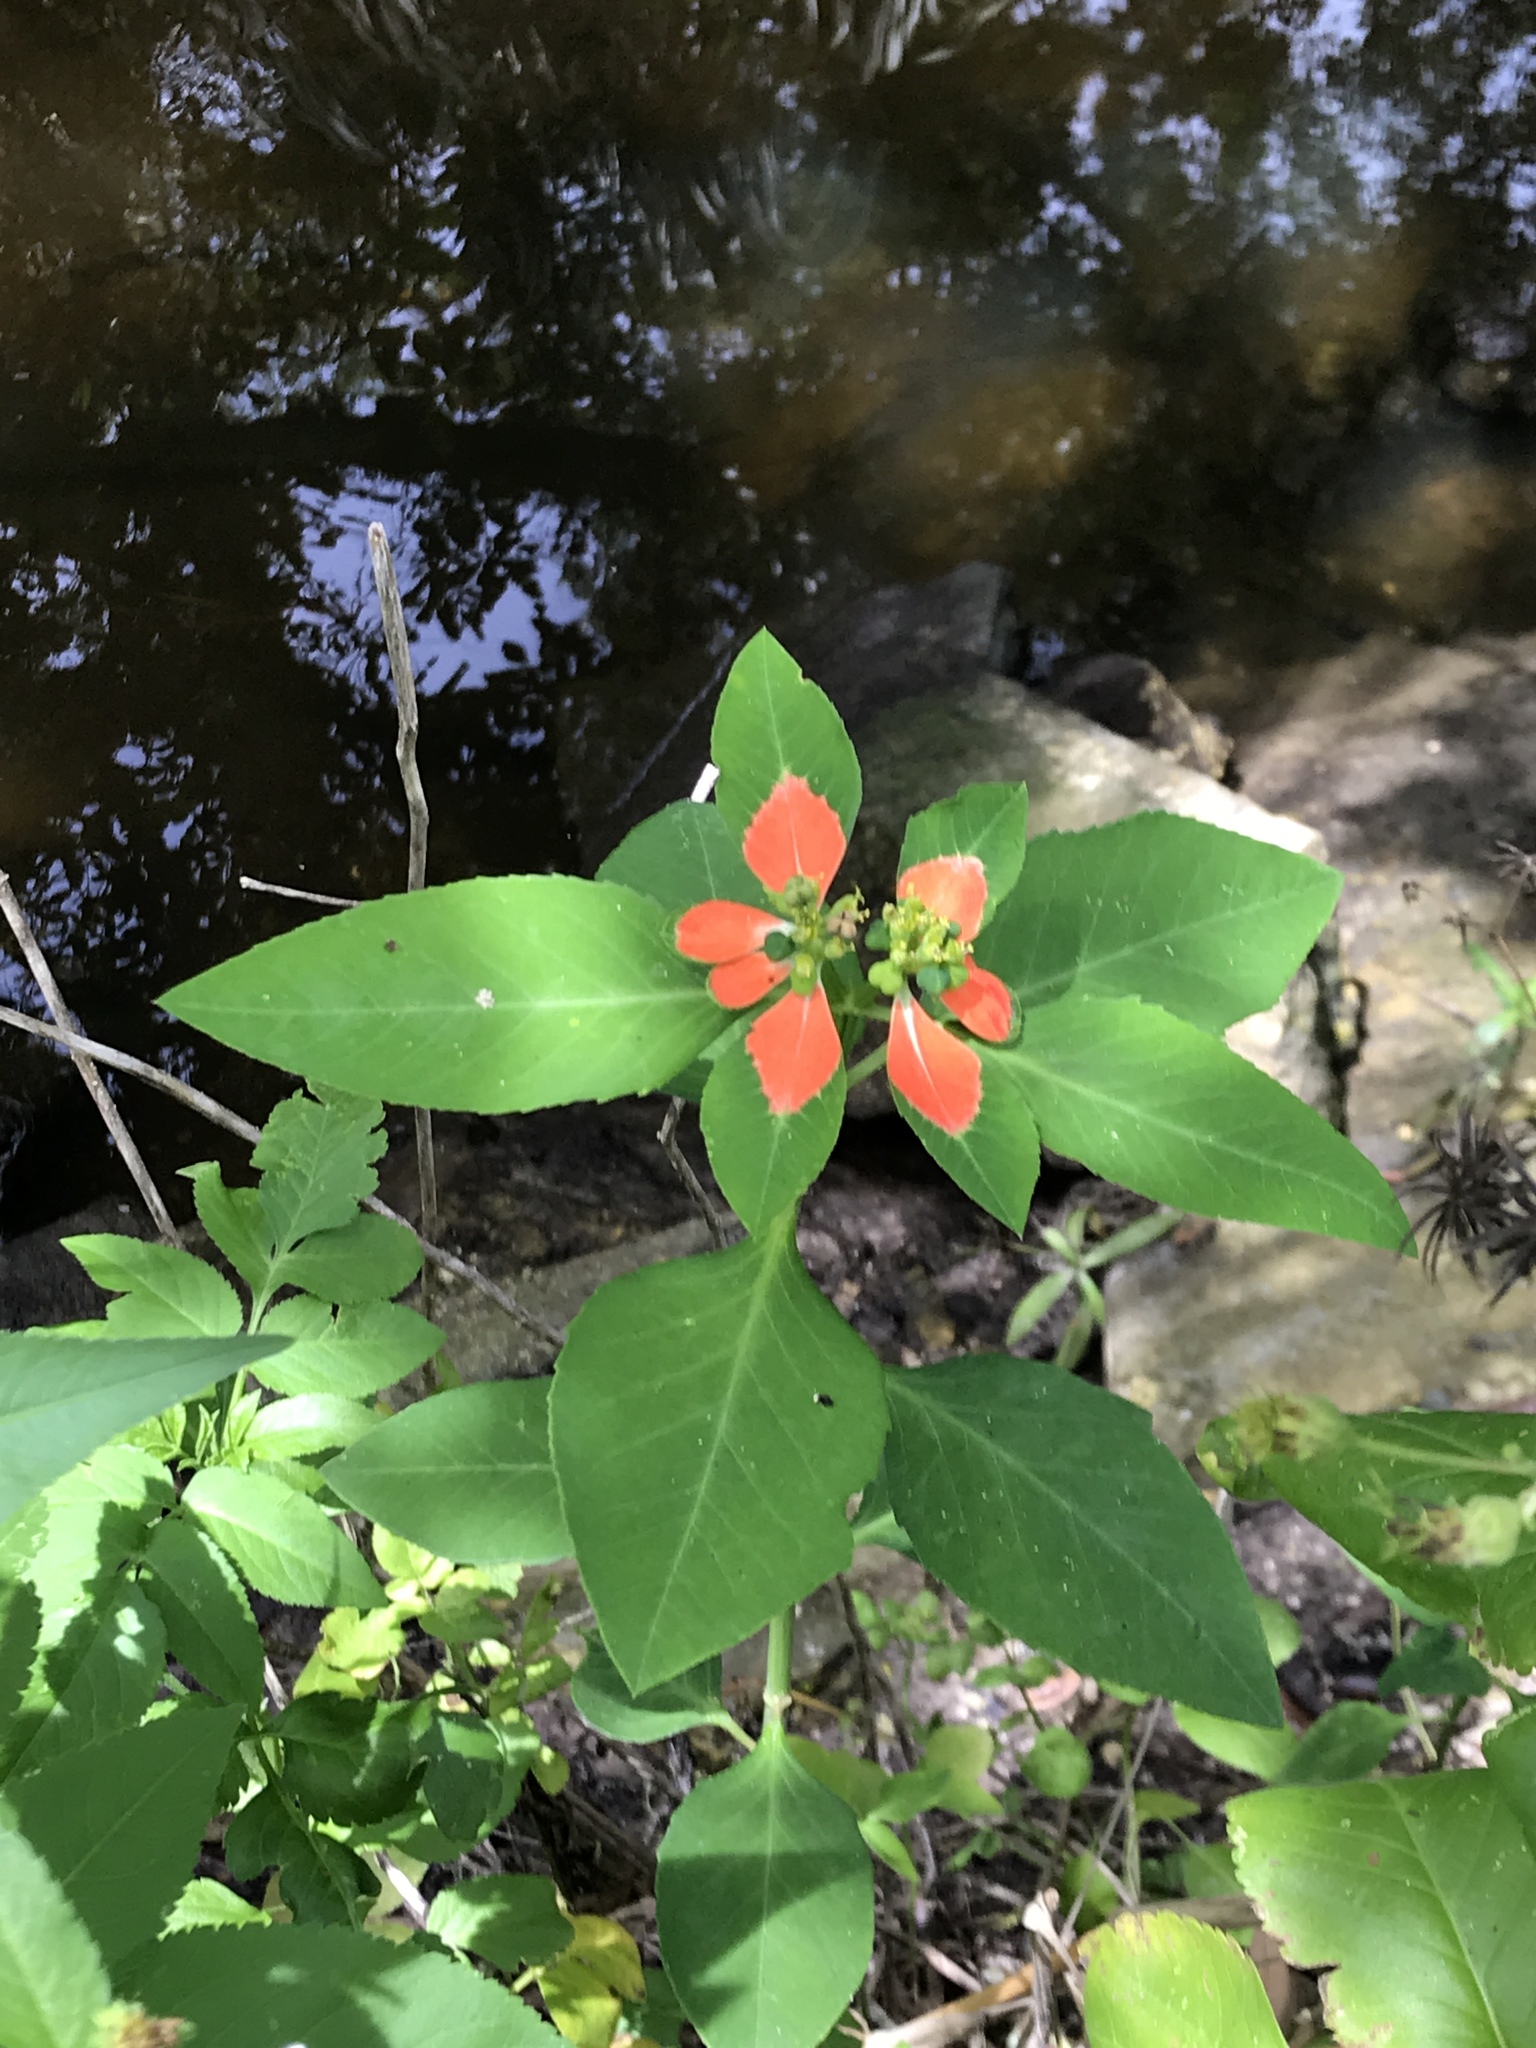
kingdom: Plantae
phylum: Tracheophyta
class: Magnoliopsida
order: Malpighiales
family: Euphorbiaceae
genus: Euphorbia
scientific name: Euphorbia heterophylla
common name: Mexican fireplant
